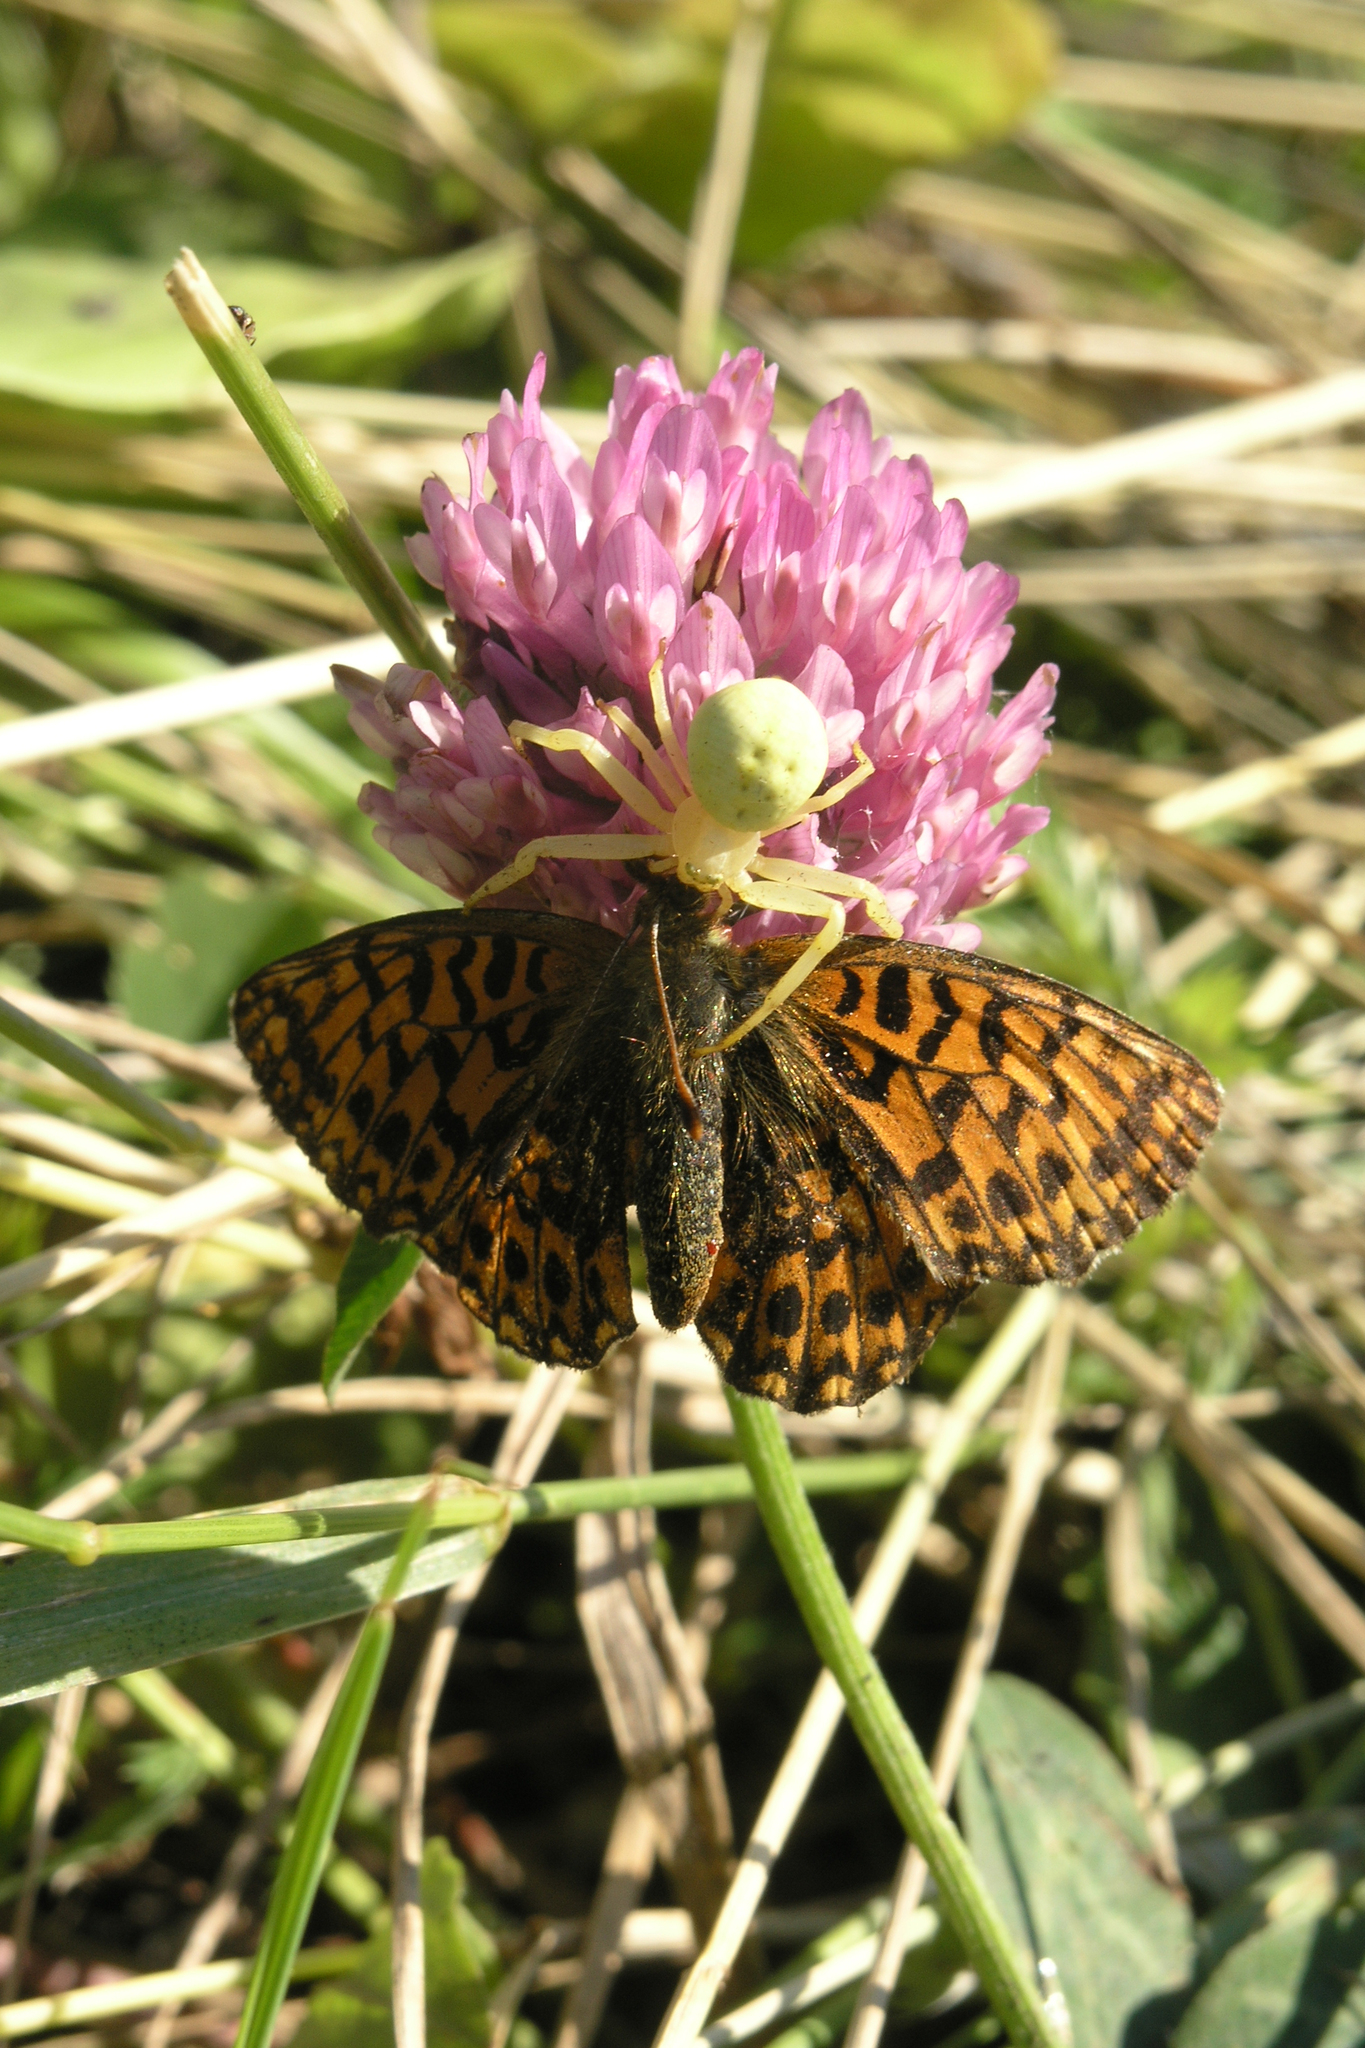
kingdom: Plantae
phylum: Tracheophyta
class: Magnoliopsida
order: Fabales
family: Fabaceae
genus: Trifolium
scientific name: Trifolium pratense
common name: Red clover
